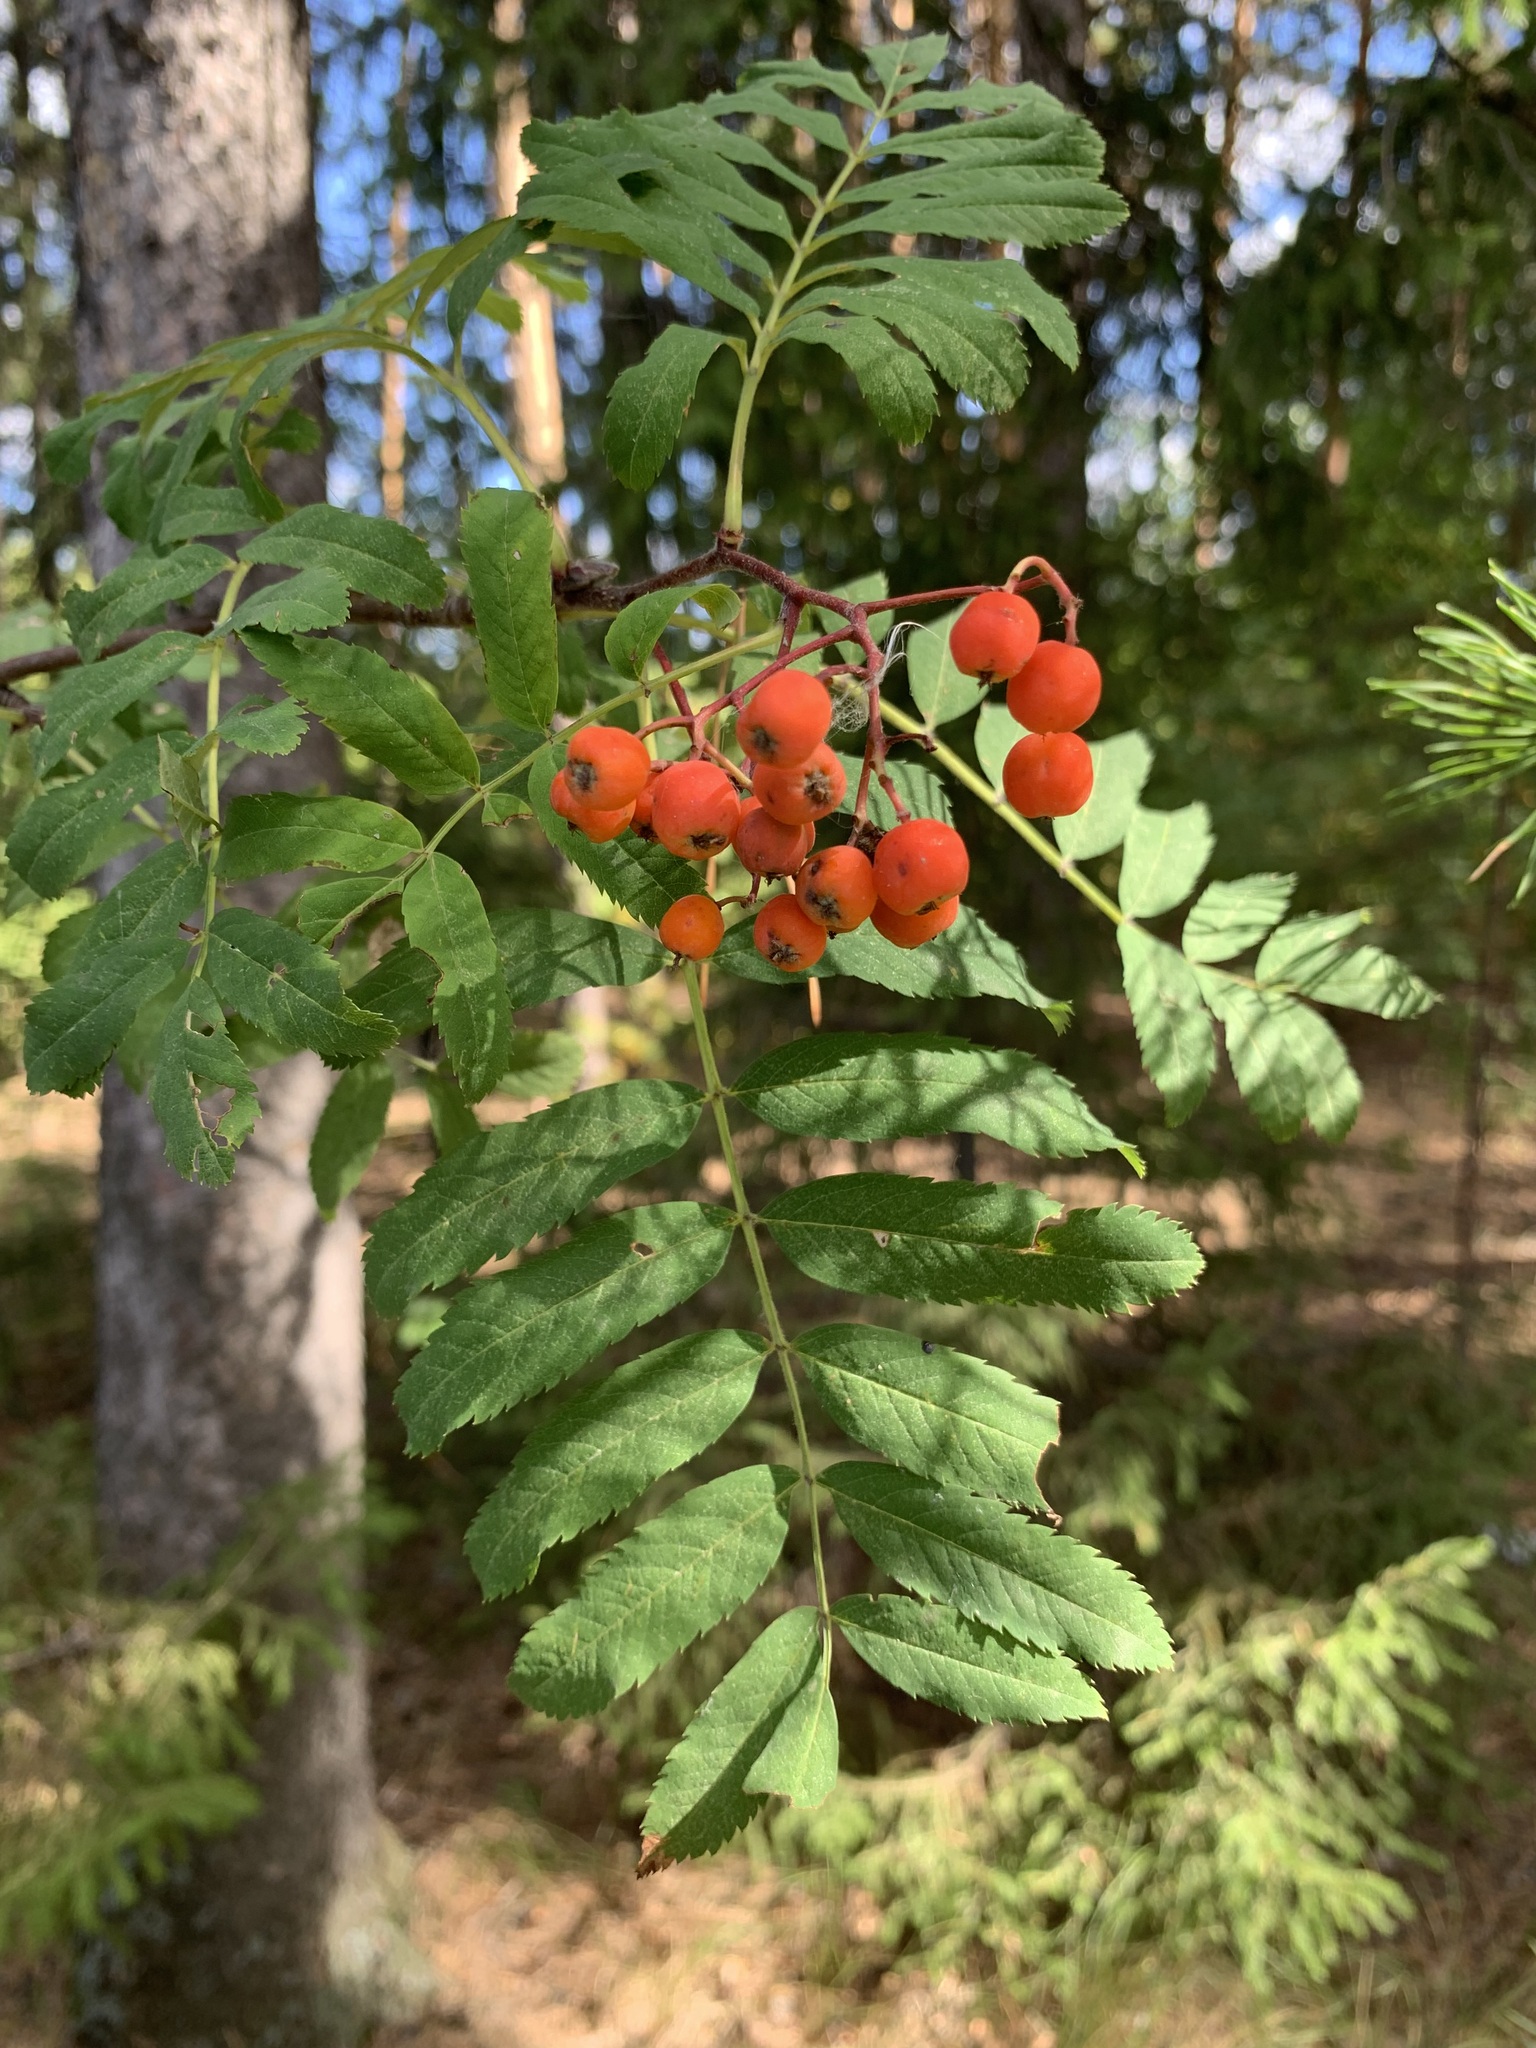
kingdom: Plantae
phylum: Tracheophyta
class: Magnoliopsida
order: Rosales
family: Rosaceae
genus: Sorbus
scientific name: Sorbus aucuparia
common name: Rowan
